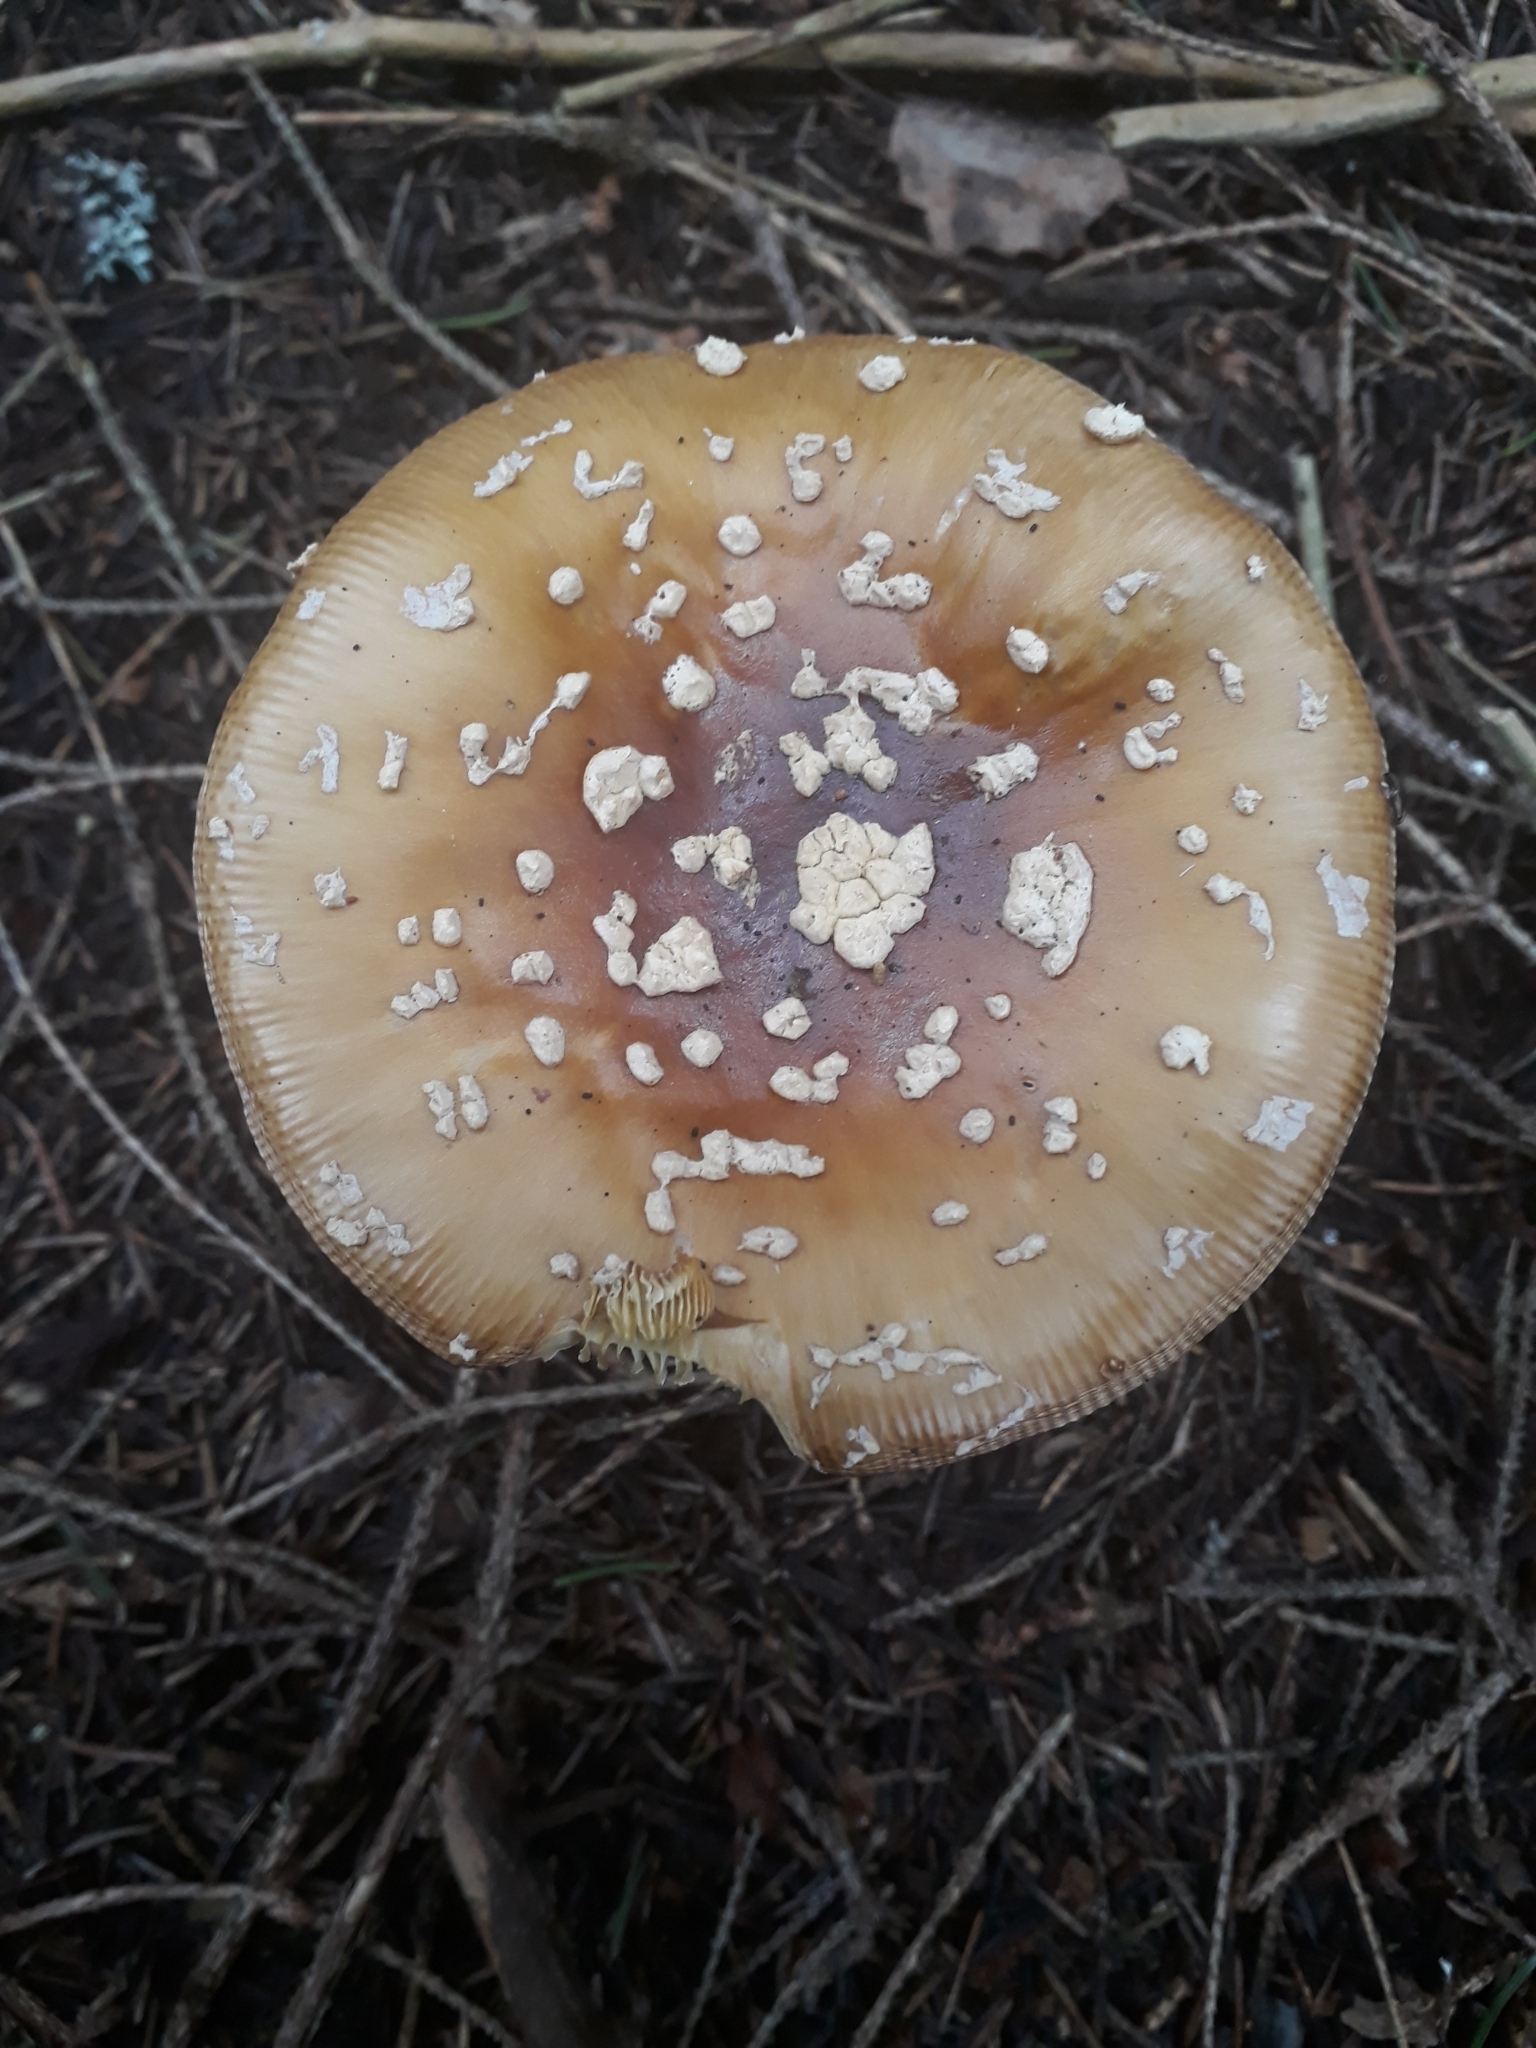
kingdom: Fungi
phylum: Basidiomycota
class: Agaricomycetes
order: Agaricales
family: Amanitaceae
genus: Amanita
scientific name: Amanita pantherina
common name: Panthercap
